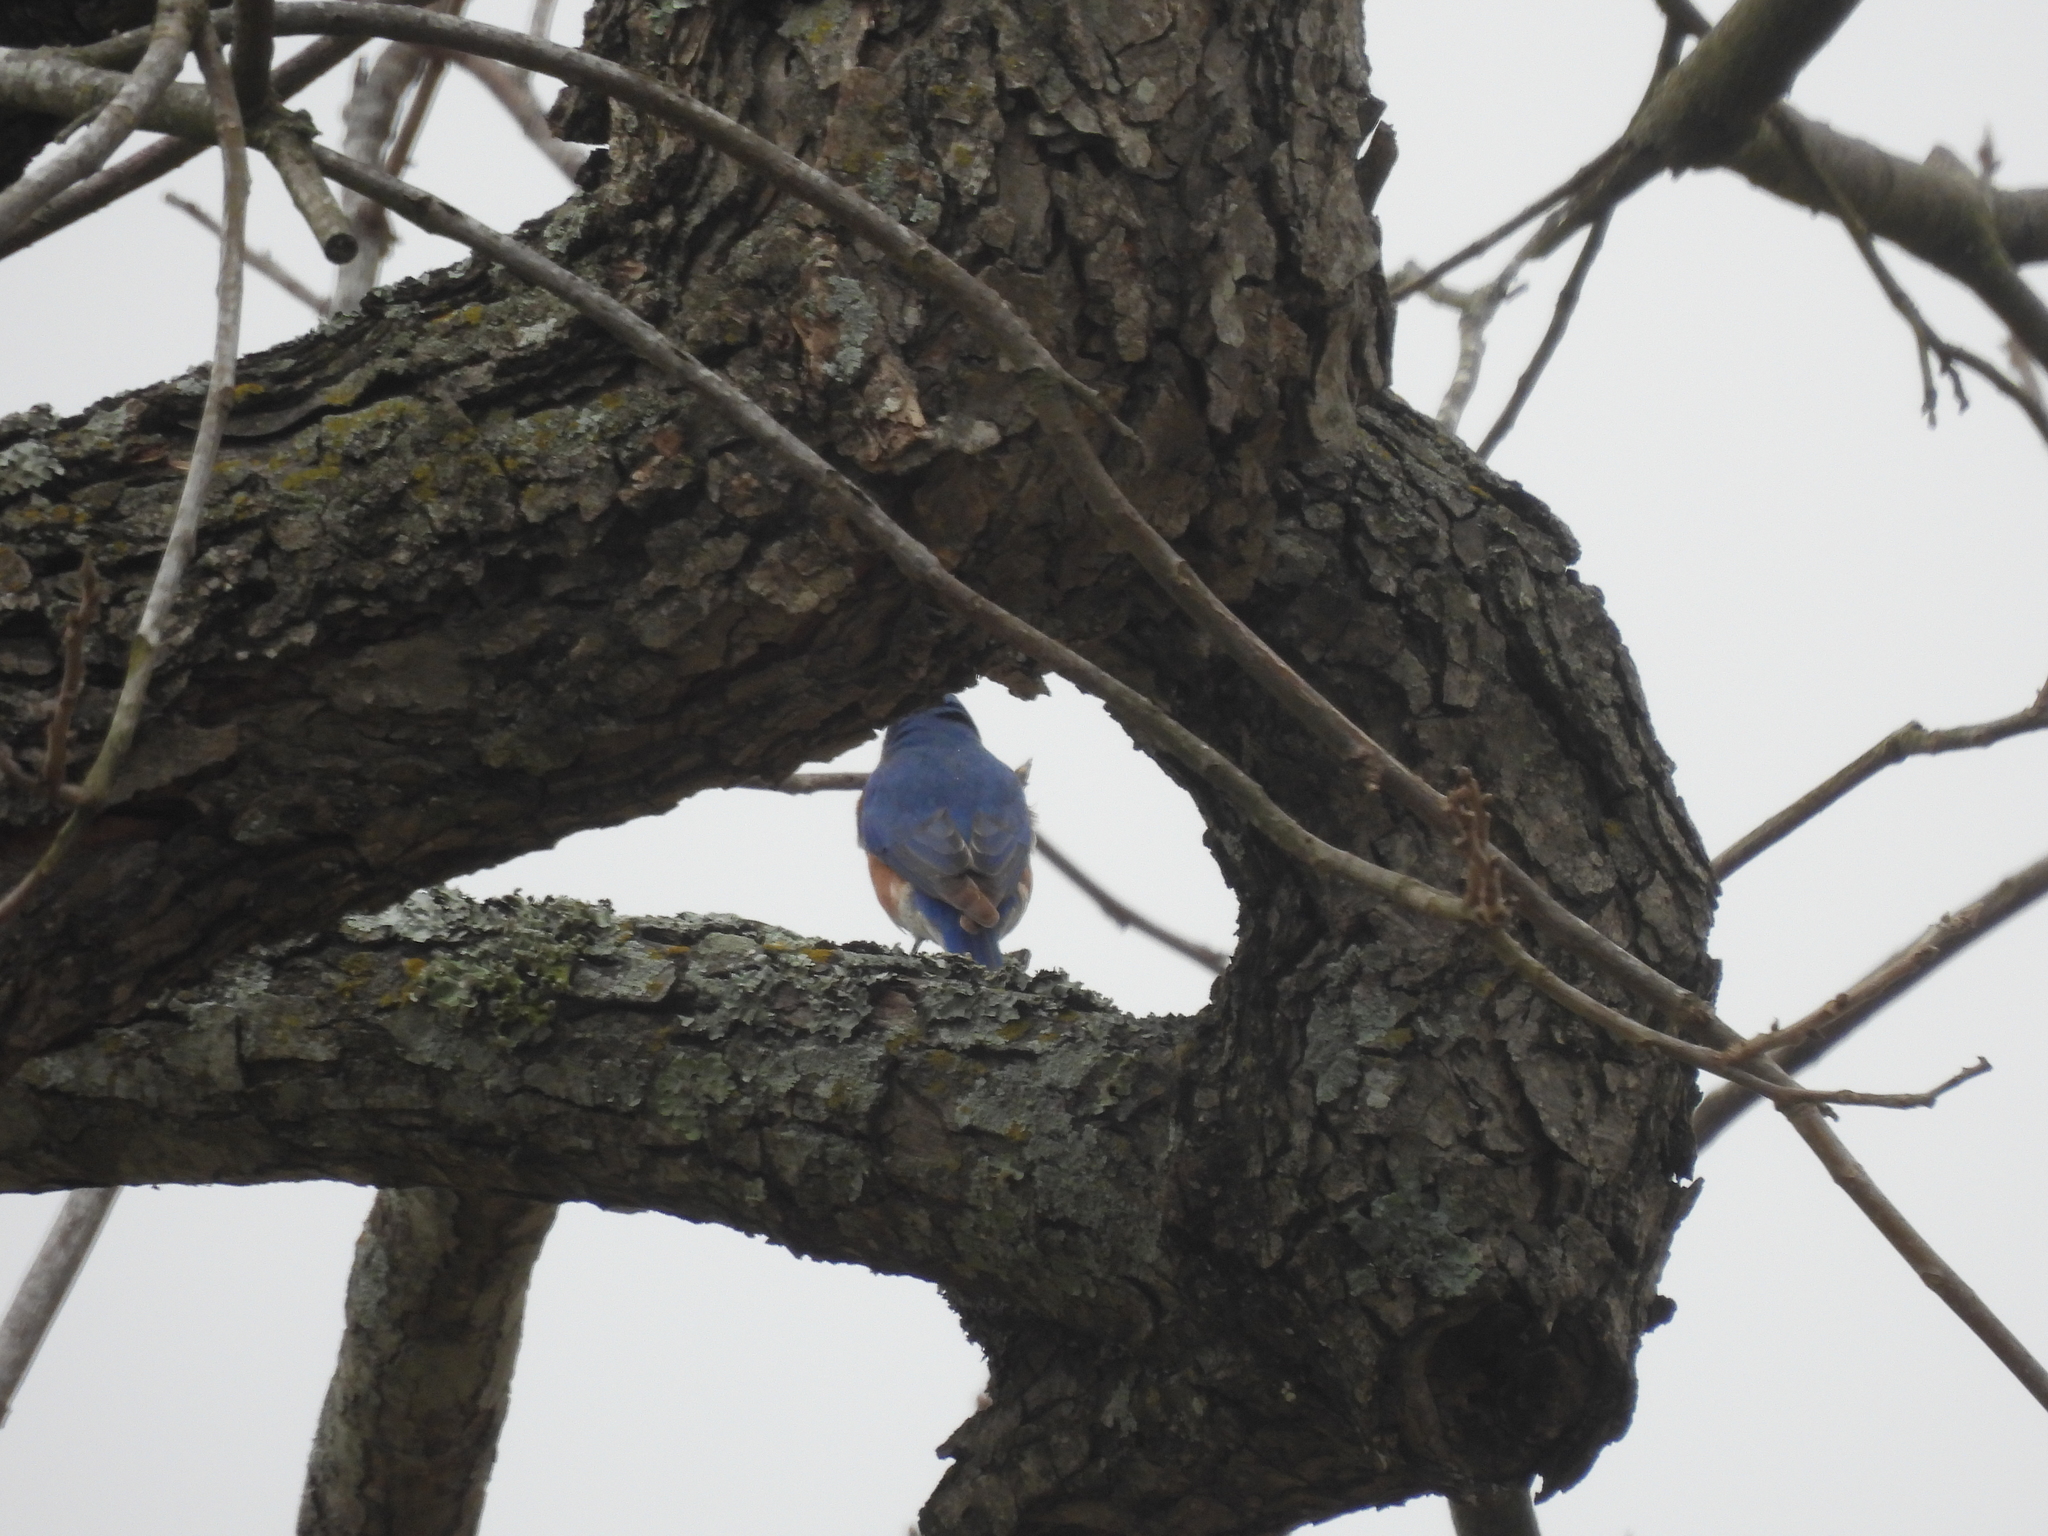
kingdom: Animalia
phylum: Chordata
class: Aves
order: Passeriformes
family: Turdidae
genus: Sialia
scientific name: Sialia sialis
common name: Eastern bluebird
